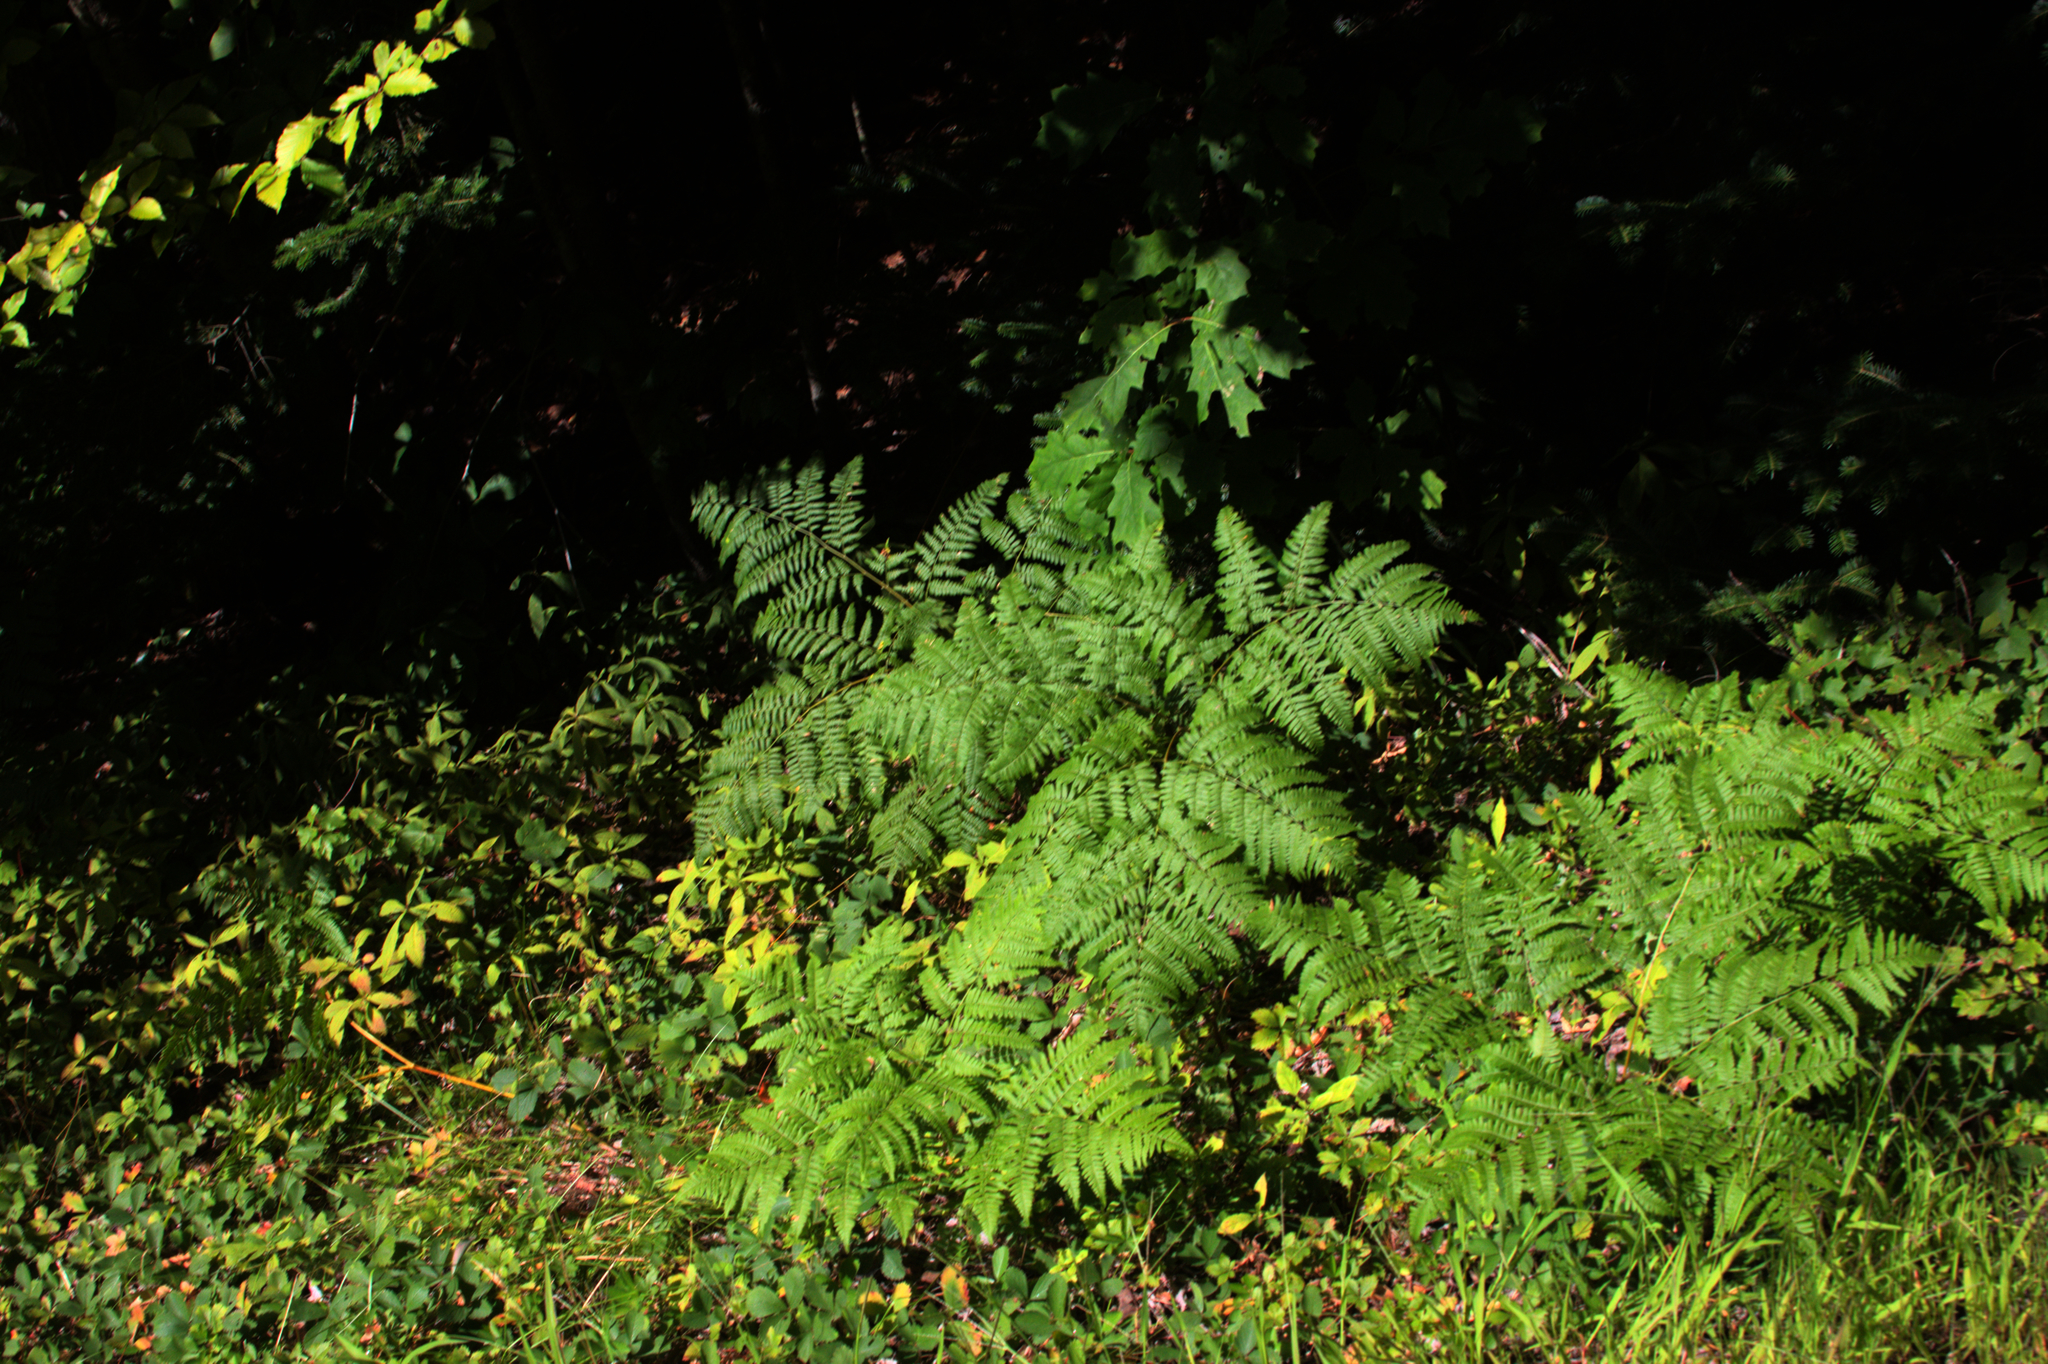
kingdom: Plantae
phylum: Tracheophyta
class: Polypodiopsida
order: Polypodiales
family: Dennstaedtiaceae
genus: Pteridium
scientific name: Pteridium aquilinum
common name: Bracken
